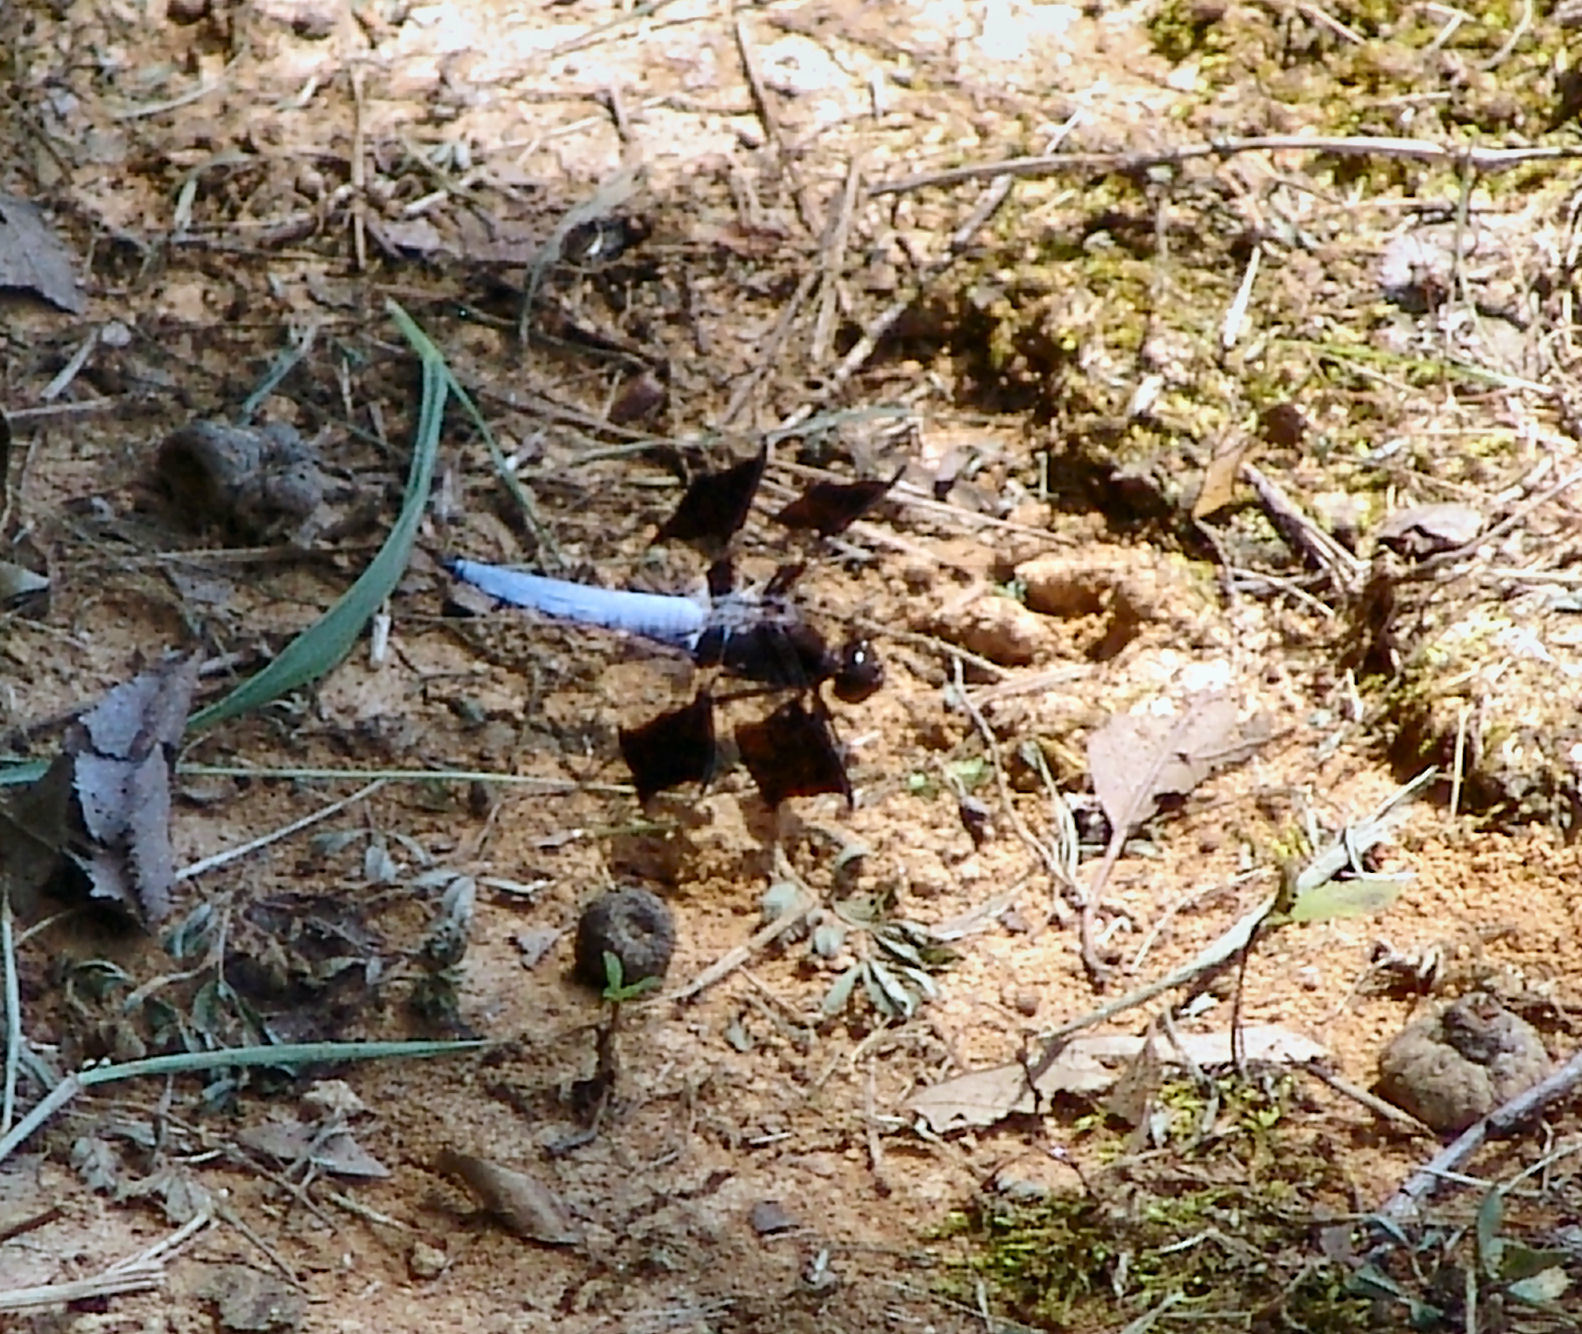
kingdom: Animalia
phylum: Arthropoda
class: Insecta
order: Odonata
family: Libellulidae
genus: Plathemis
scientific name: Plathemis lydia
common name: Common whitetail
